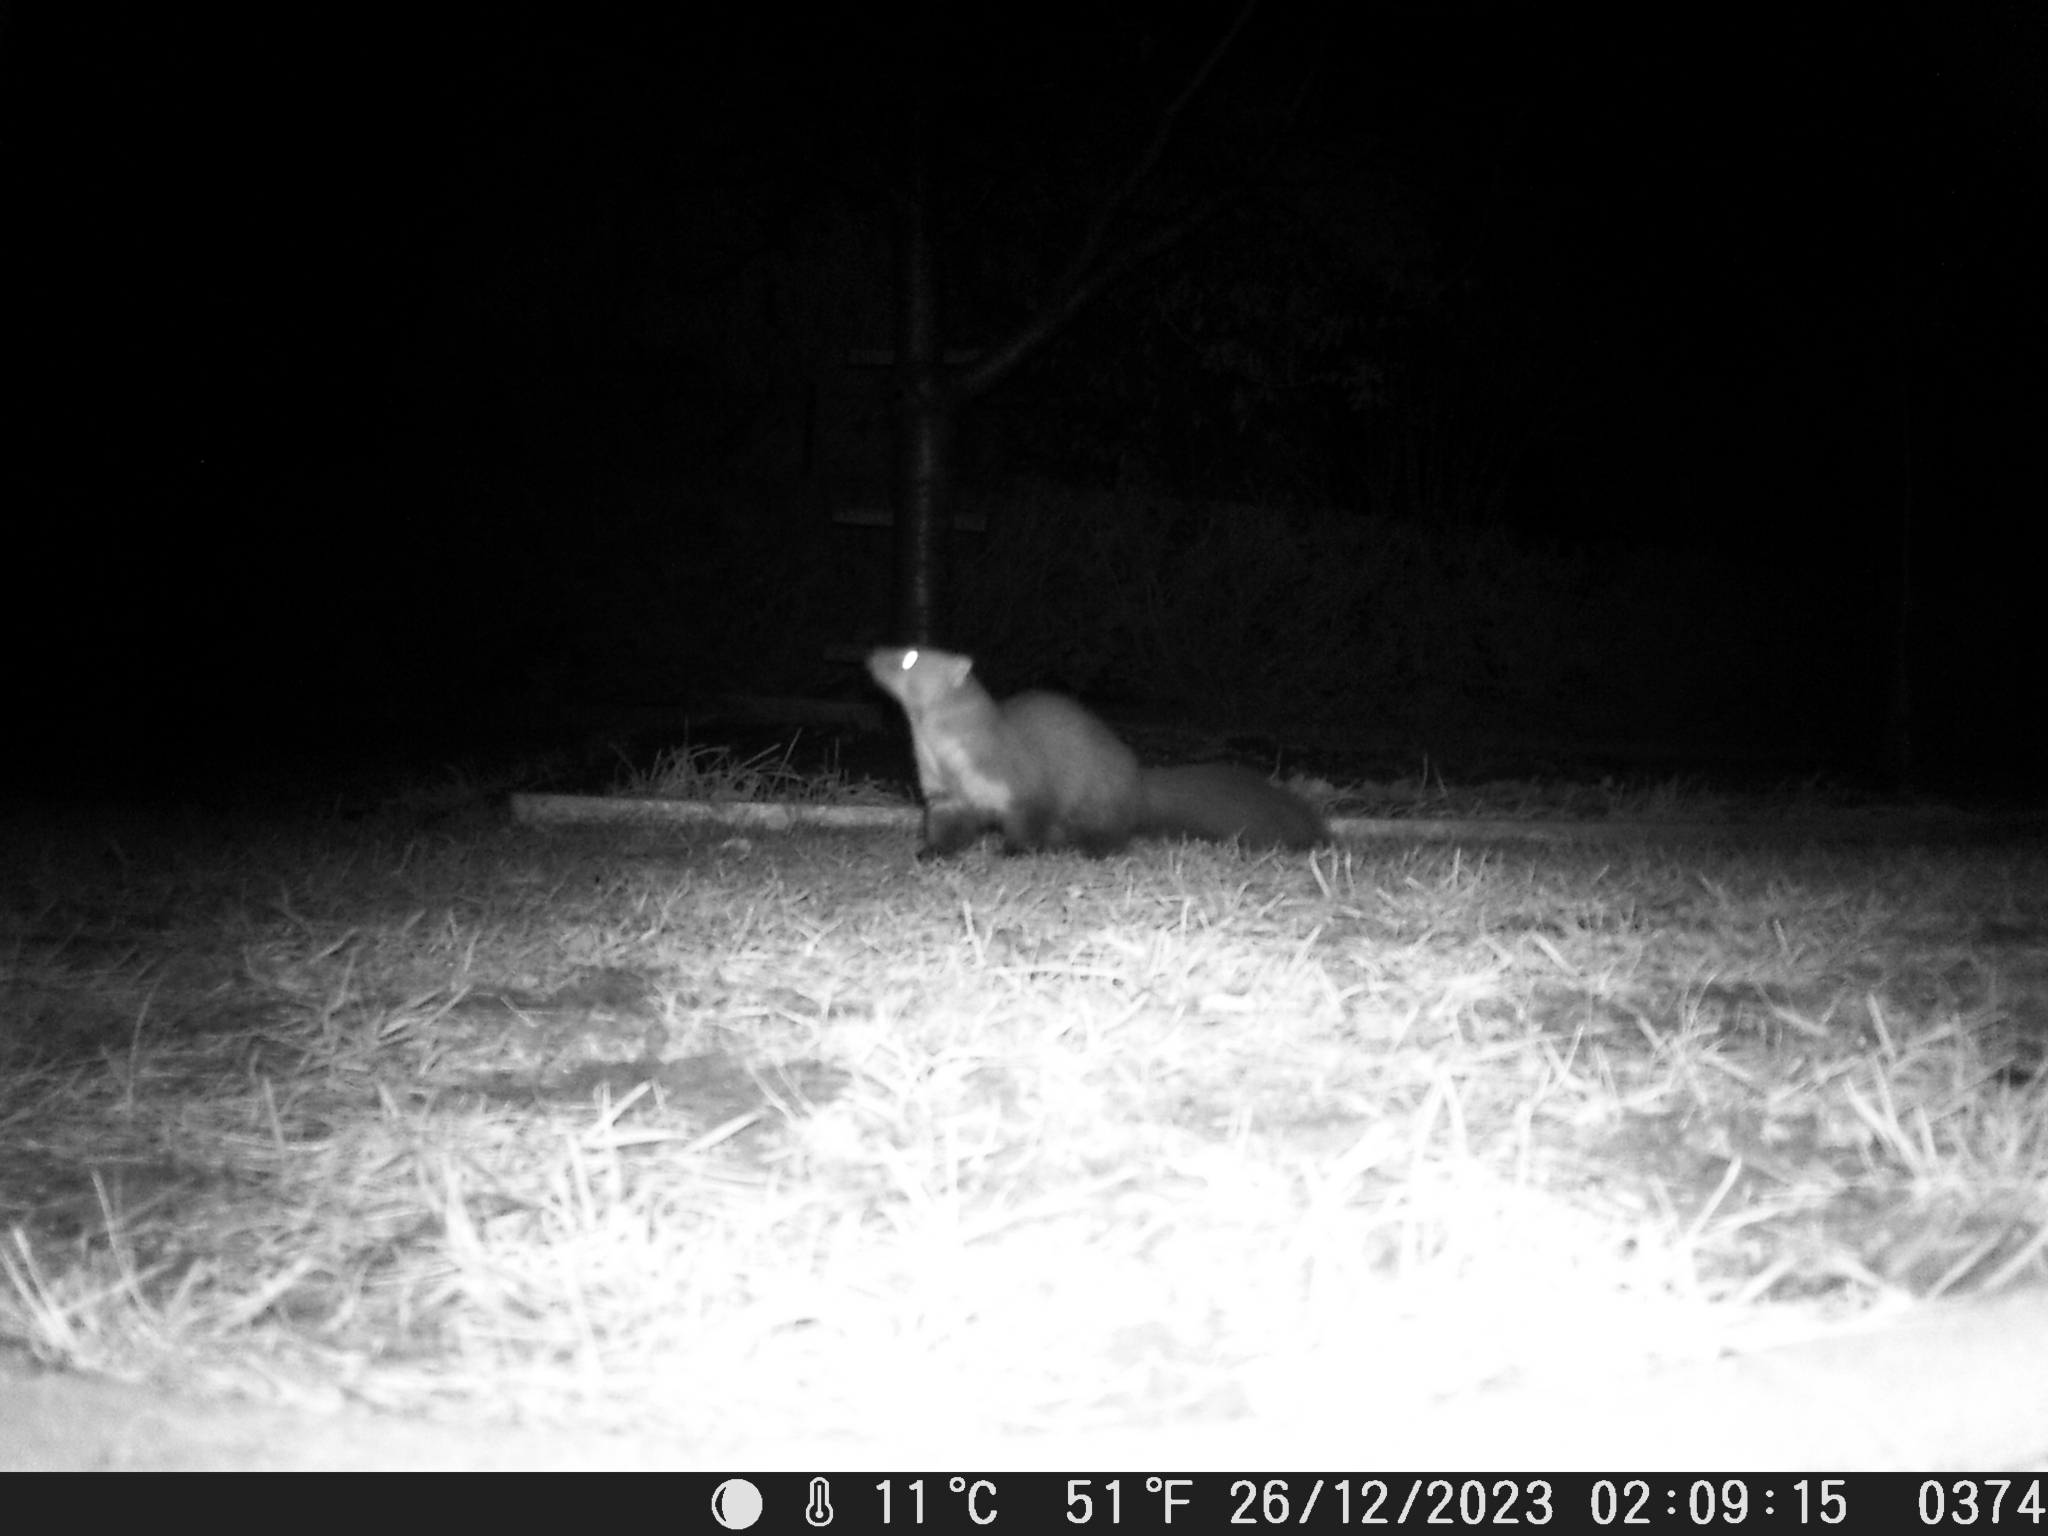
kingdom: Animalia
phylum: Chordata
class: Mammalia
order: Carnivora
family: Mustelidae
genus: Martes
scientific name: Martes foina
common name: Beech marten
